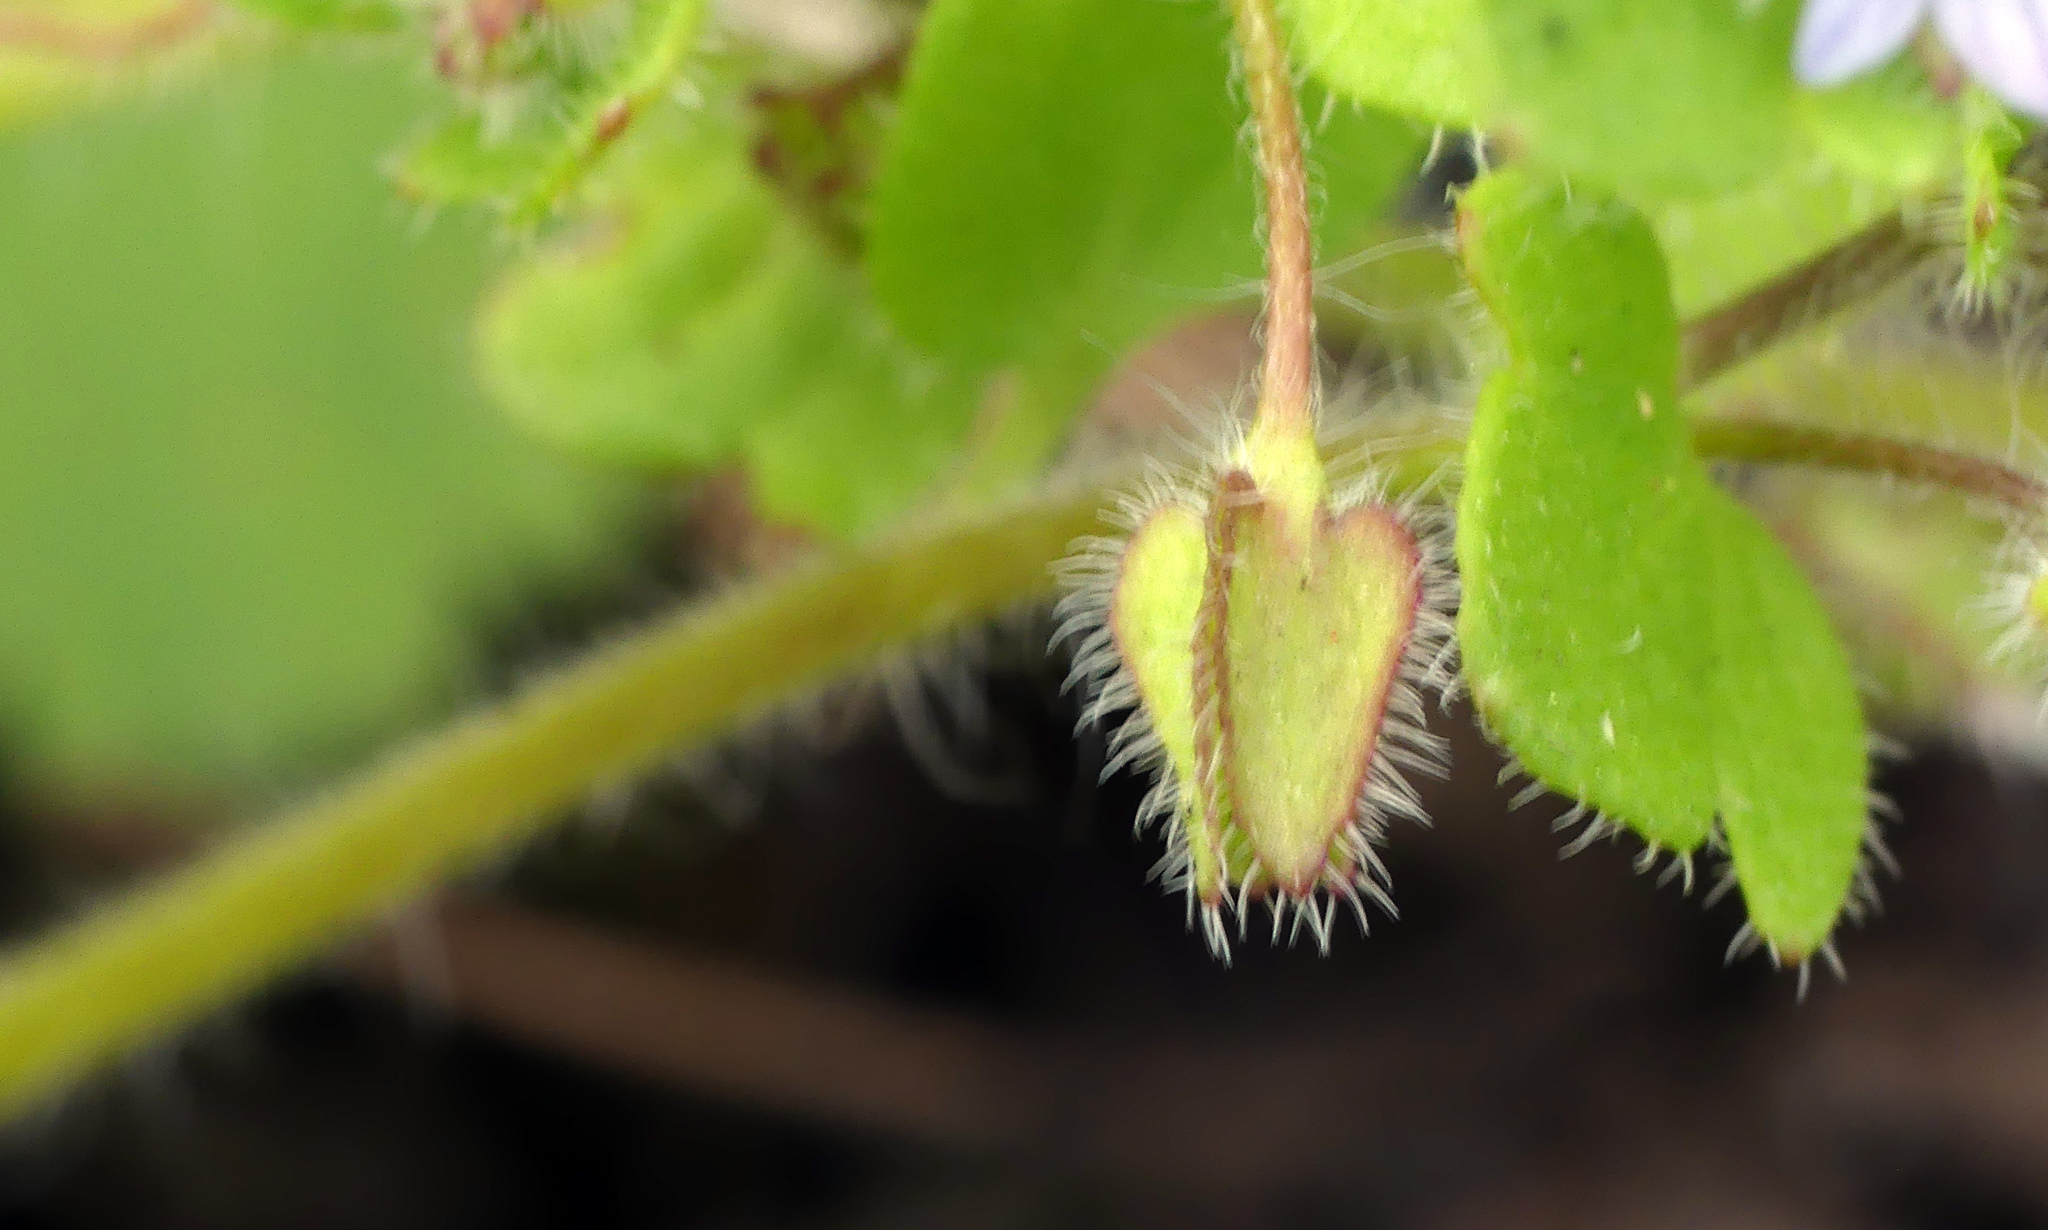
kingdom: Plantae
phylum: Tracheophyta
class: Magnoliopsida
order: Lamiales
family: Plantaginaceae
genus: Veronica
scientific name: Veronica sublobata
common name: False ivy-leaved speedwell
